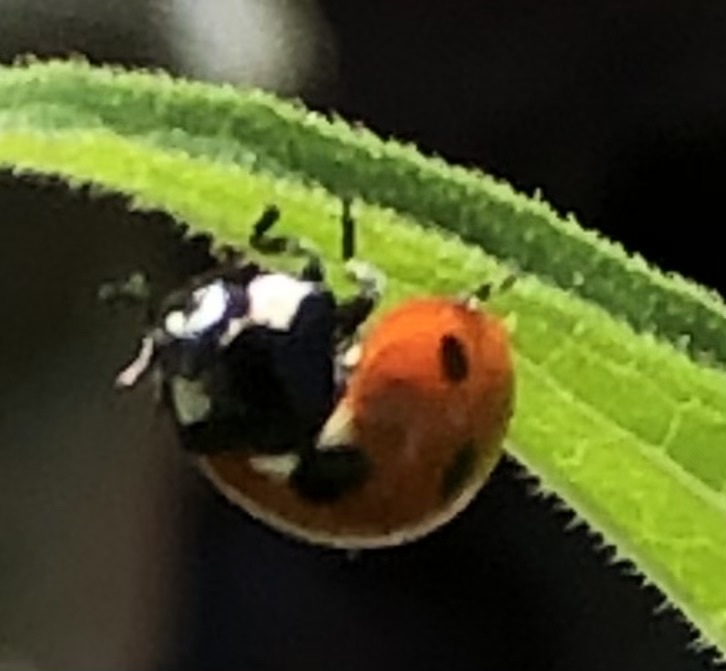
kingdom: Animalia
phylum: Arthropoda
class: Insecta
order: Coleoptera
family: Coccinellidae
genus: Coccinella
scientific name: Coccinella septempunctata
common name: Sevenspotted lady beetle
